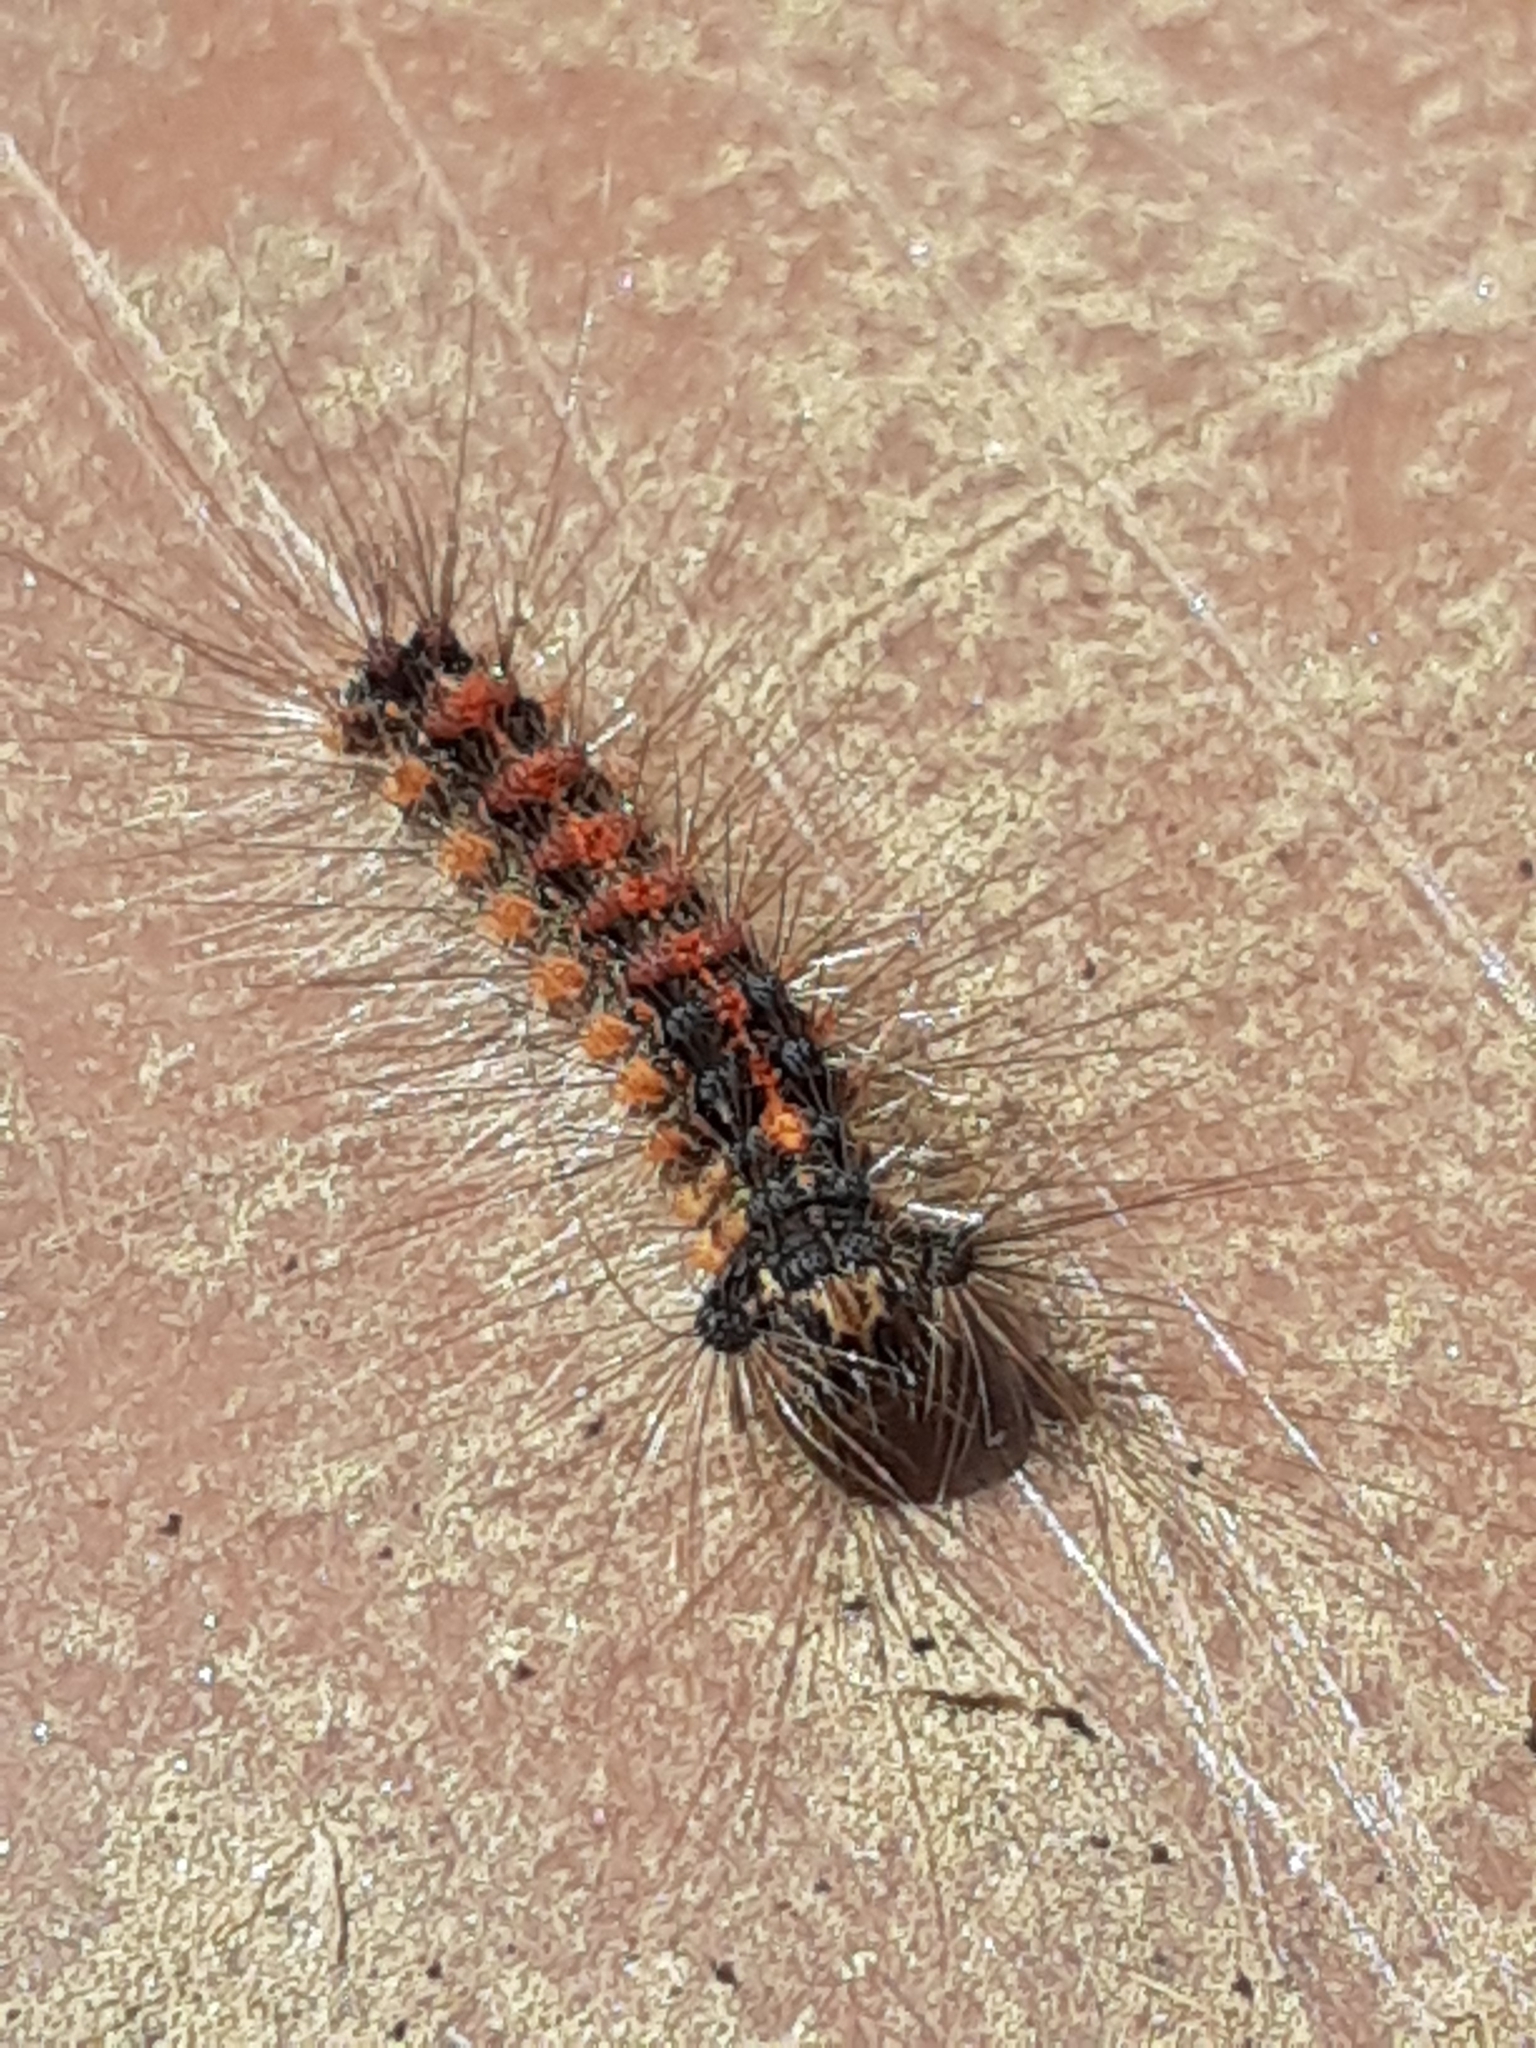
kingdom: Animalia
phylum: Arthropoda
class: Insecta
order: Lepidoptera
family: Erebidae
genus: Lymantria
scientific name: Lymantria dispar
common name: Gypsy moth
